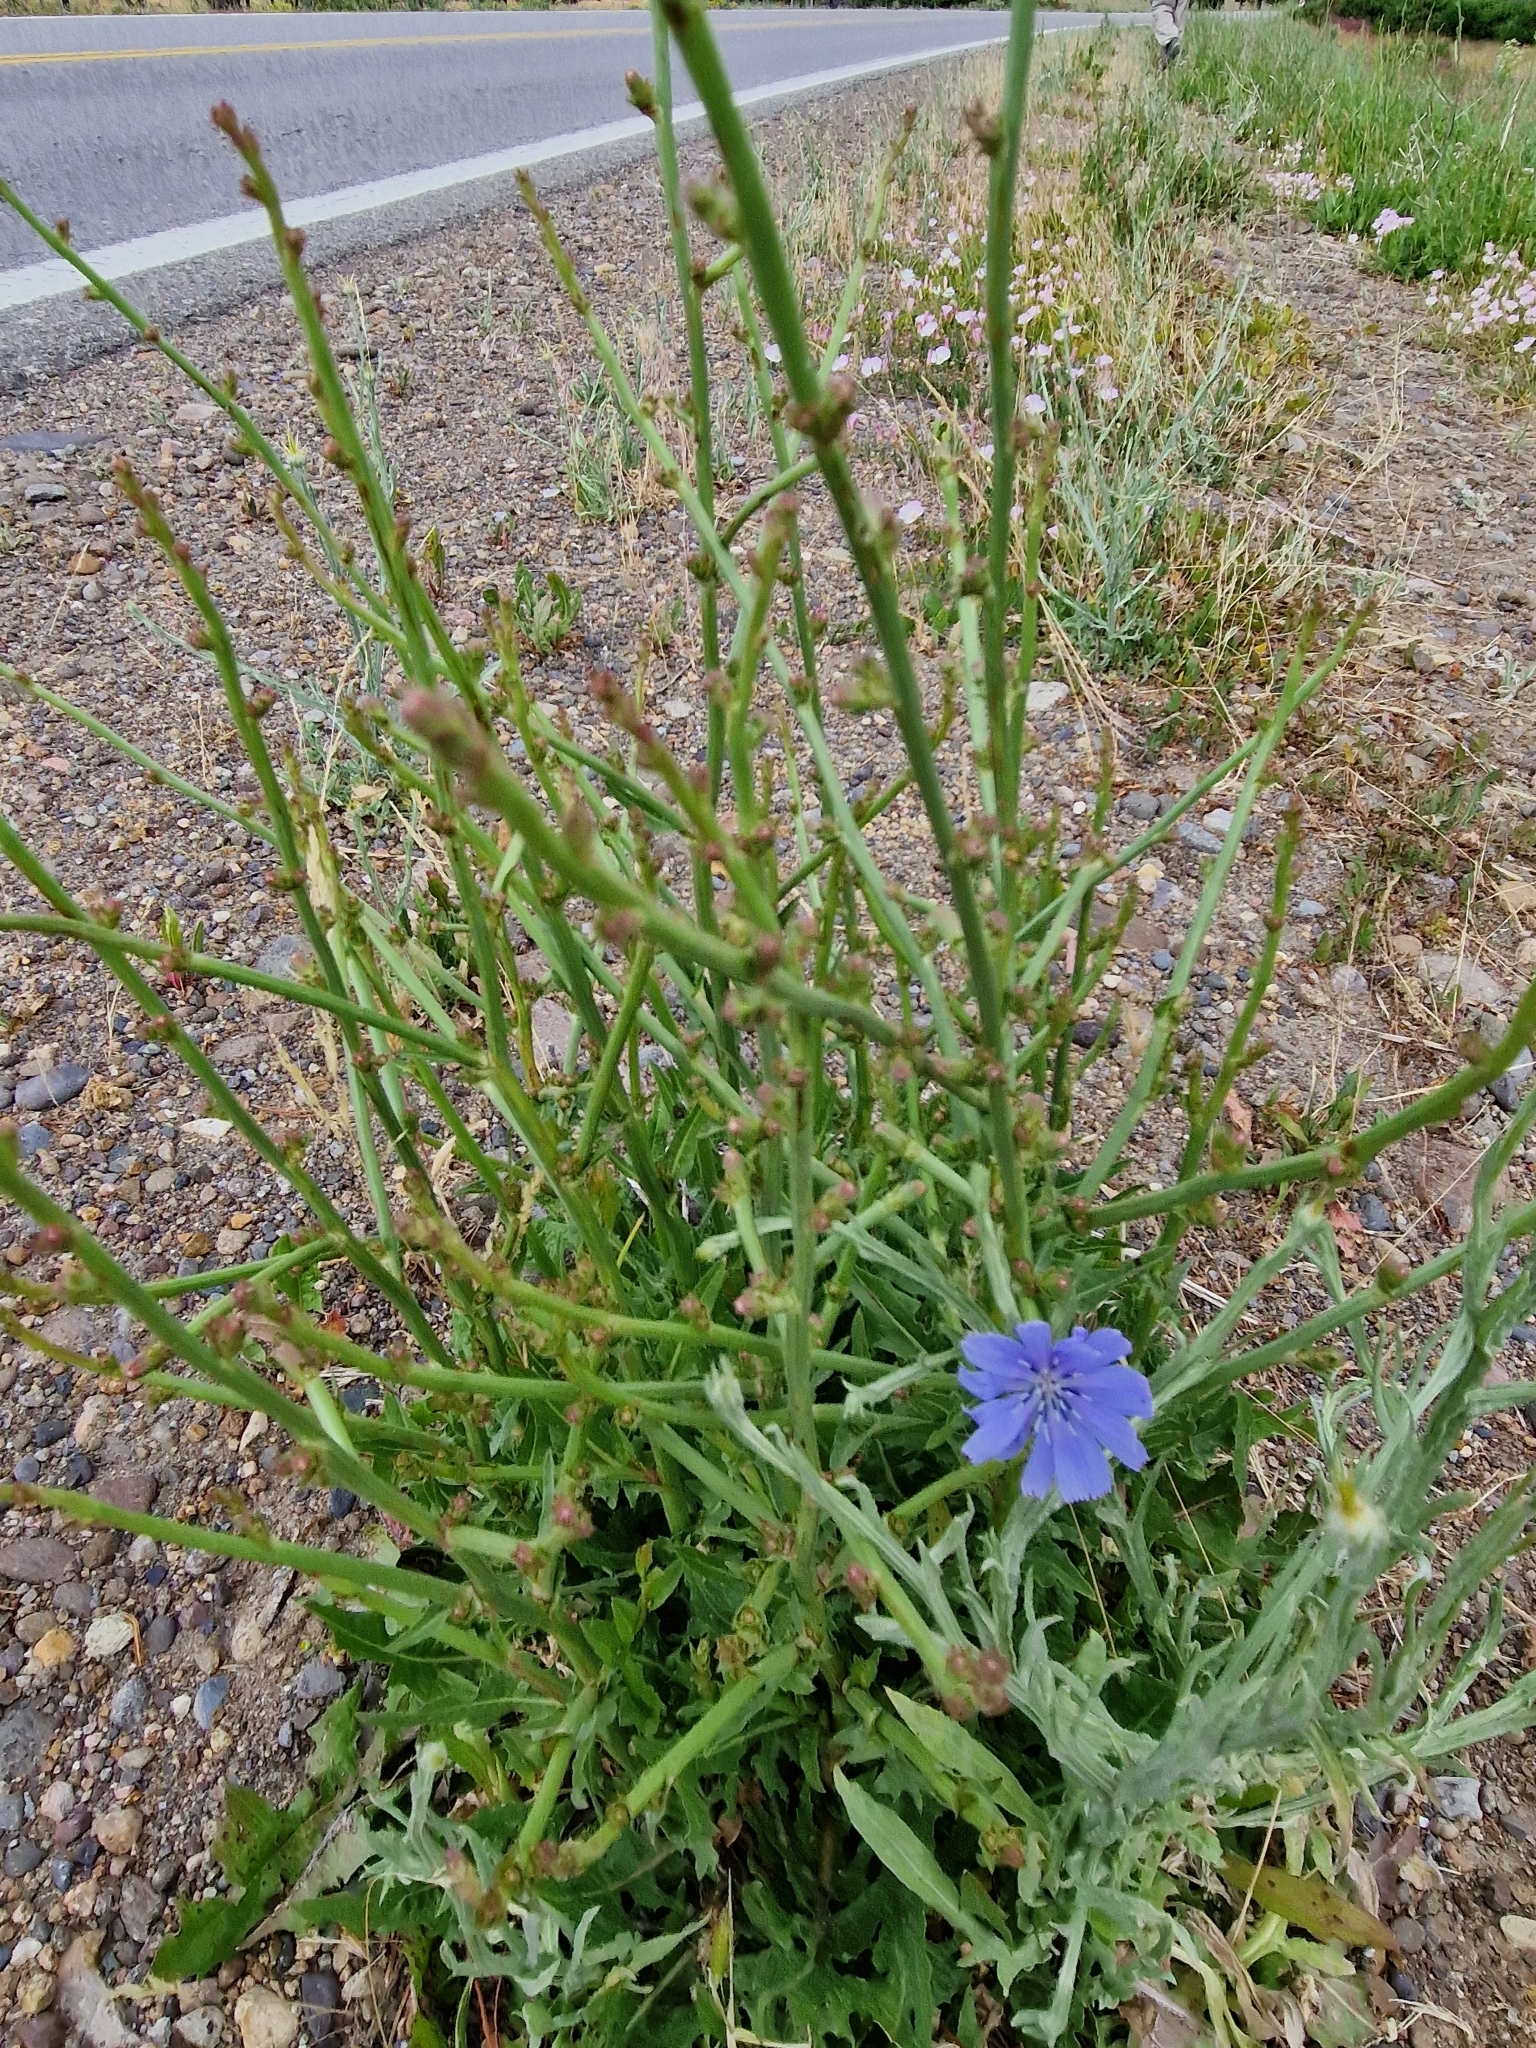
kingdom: Plantae
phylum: Tracheophyta
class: Magnoliopsida
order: Asterales
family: Asteraceae
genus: Cichorium
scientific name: Cichorium intybus
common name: Chicory
